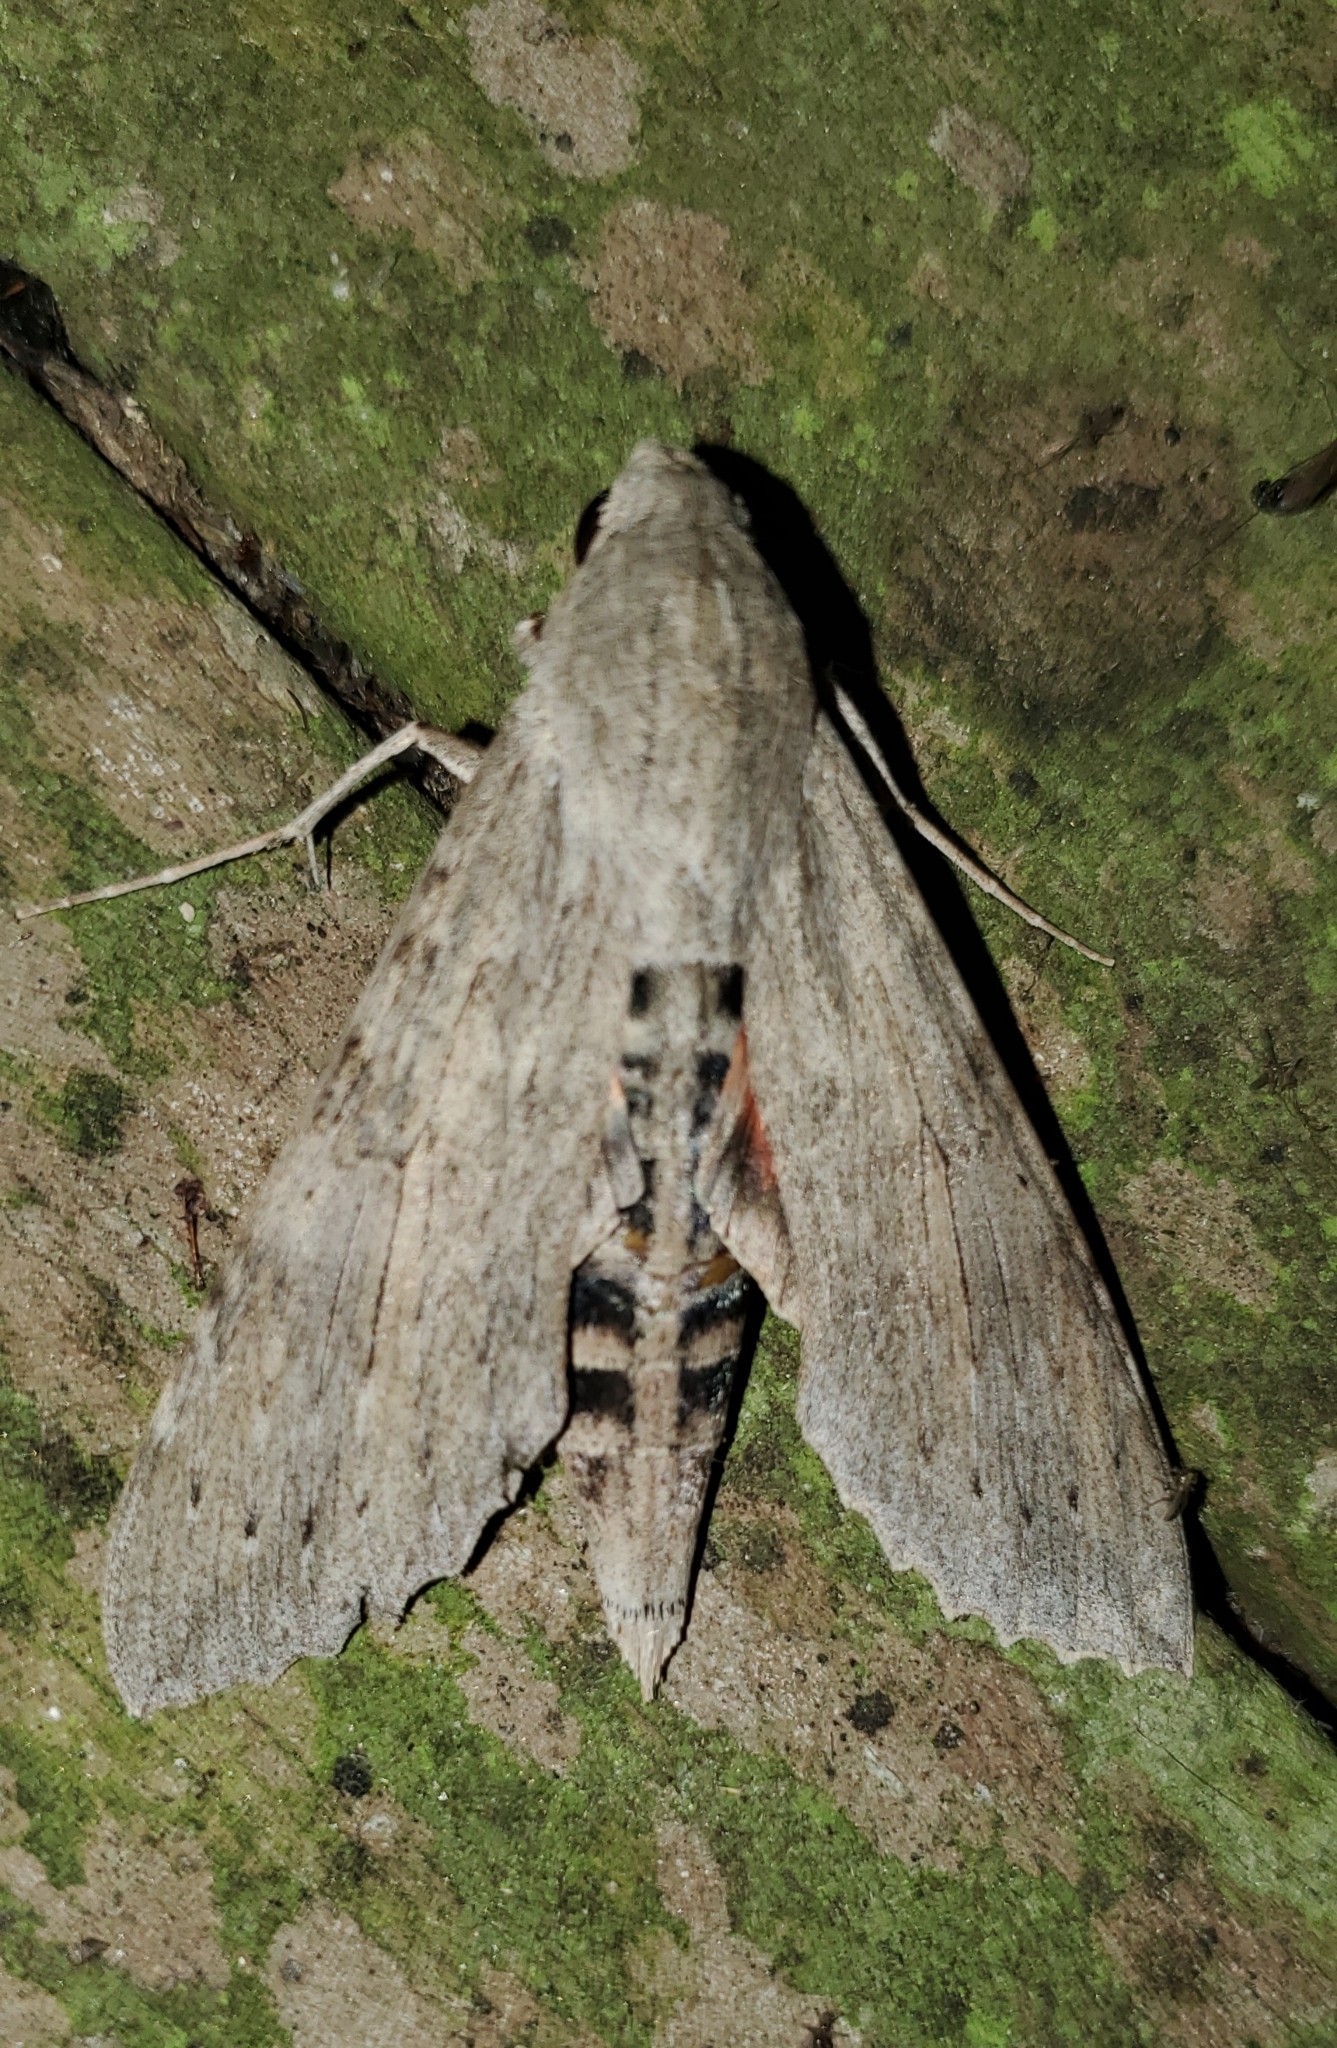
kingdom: Animalia
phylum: Arthropoda
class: Insecta
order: Lepidoptera
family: Sphingidae
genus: Erinnyis
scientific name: Erinnyis ello
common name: Ello sphinx
